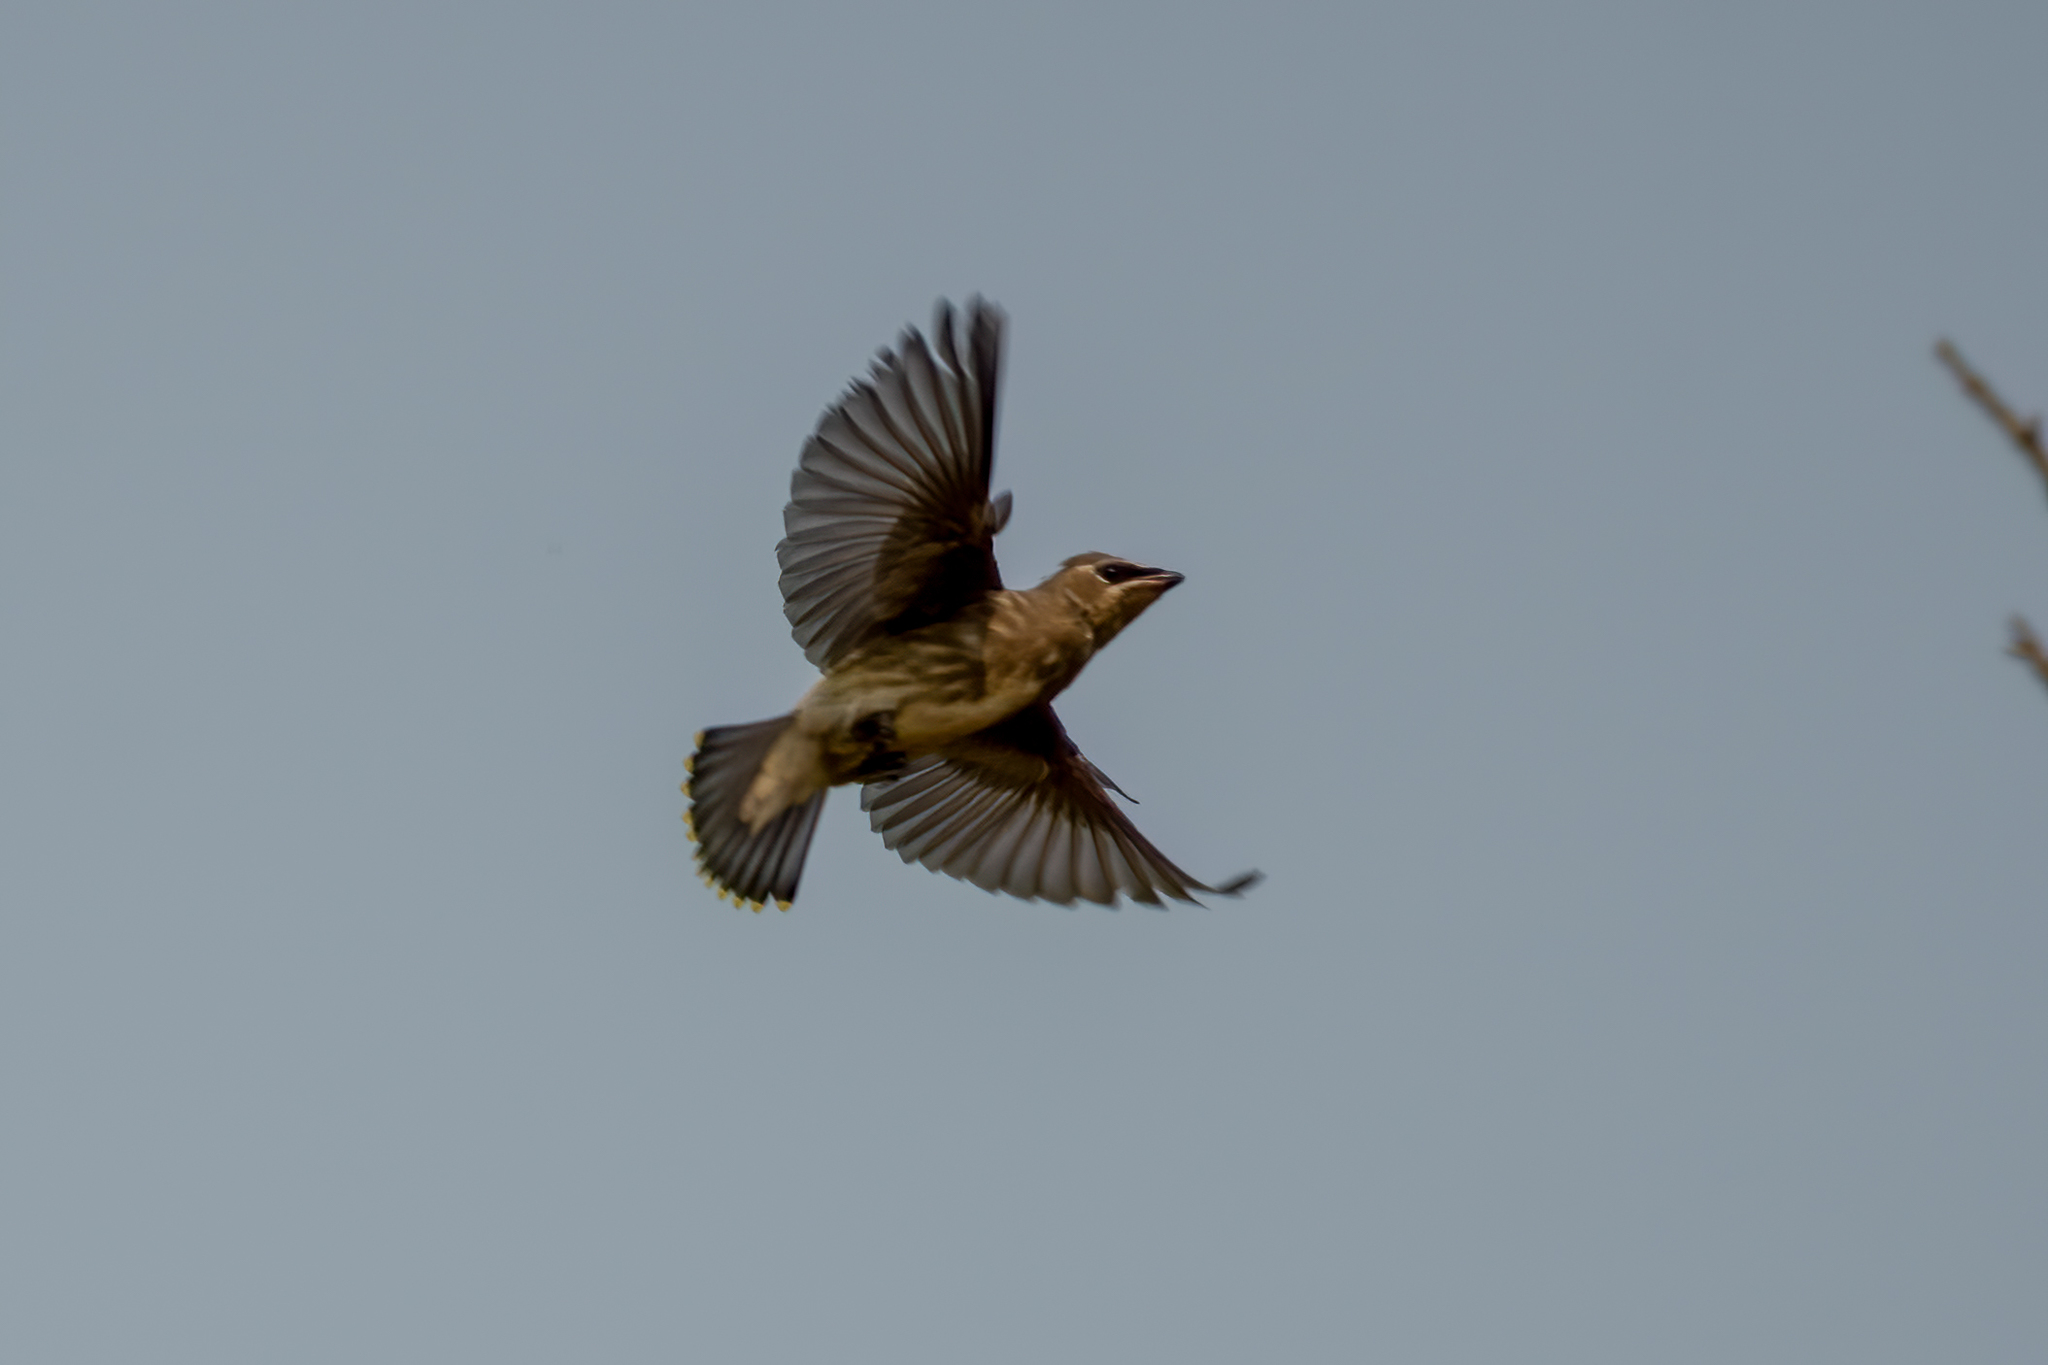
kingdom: Animalia
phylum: Chordata
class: Aves
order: Passeriformes
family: Bombycillidae
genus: Bombycilla
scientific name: Bombycilla cedrorum
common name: Cedar waxwing
